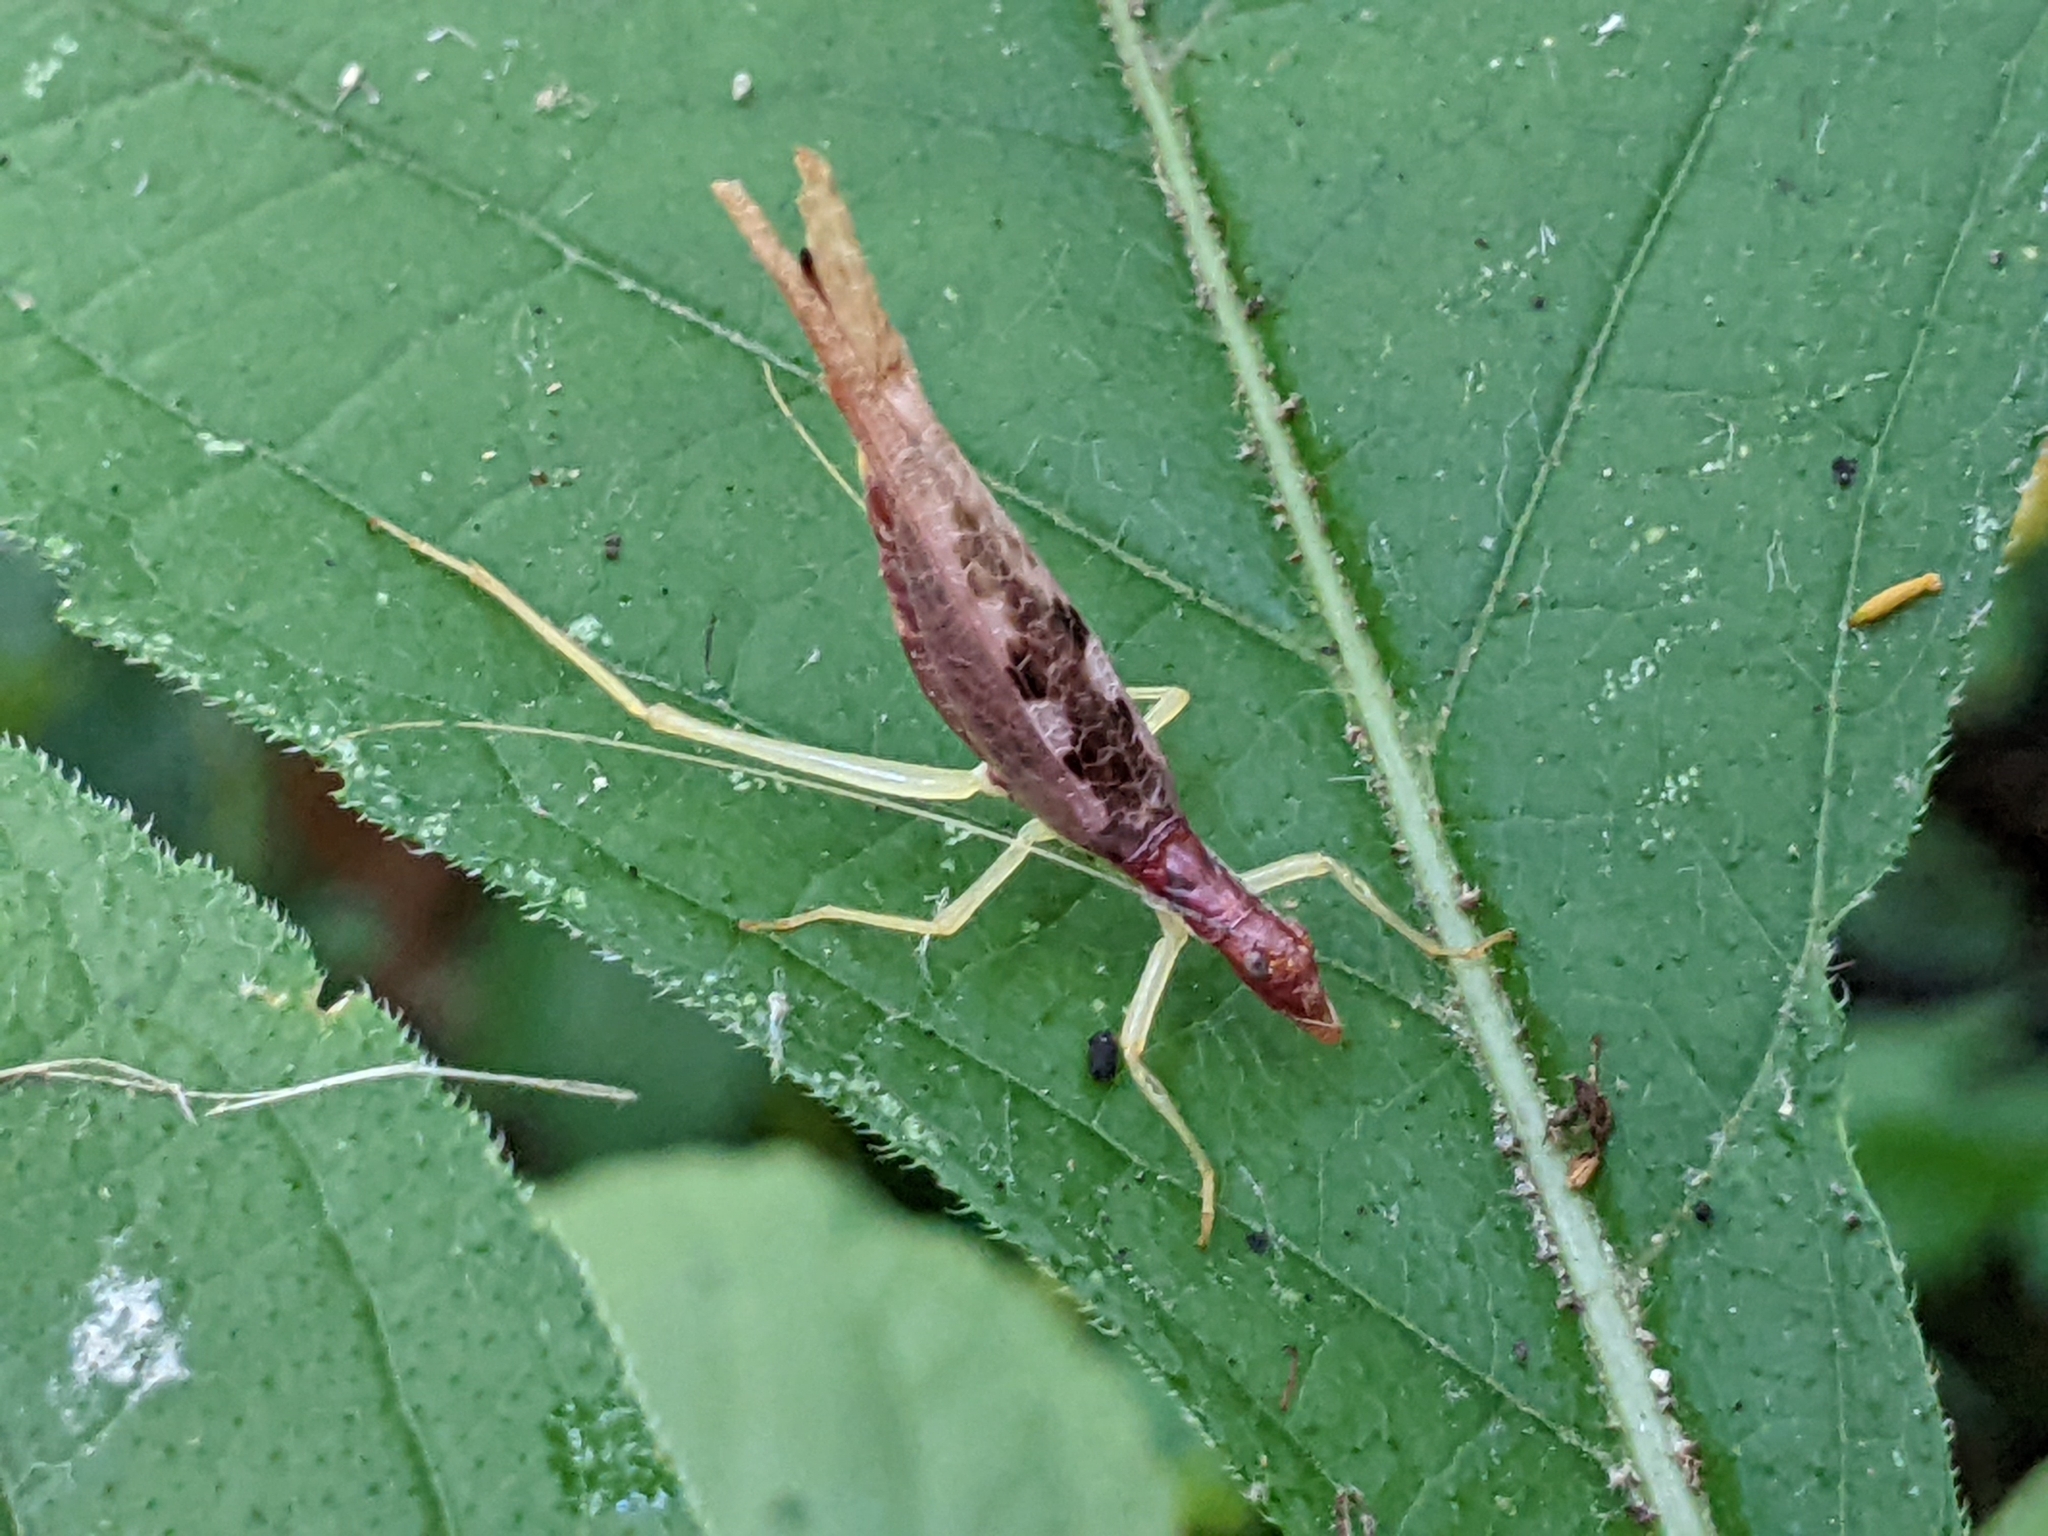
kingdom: Animalia
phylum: Arthropoda
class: Insecta
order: Orthoptera
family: Gryllidae
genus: Neoxabea
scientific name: Neoxabea bipunctata
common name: Two-spotted tree cricket
